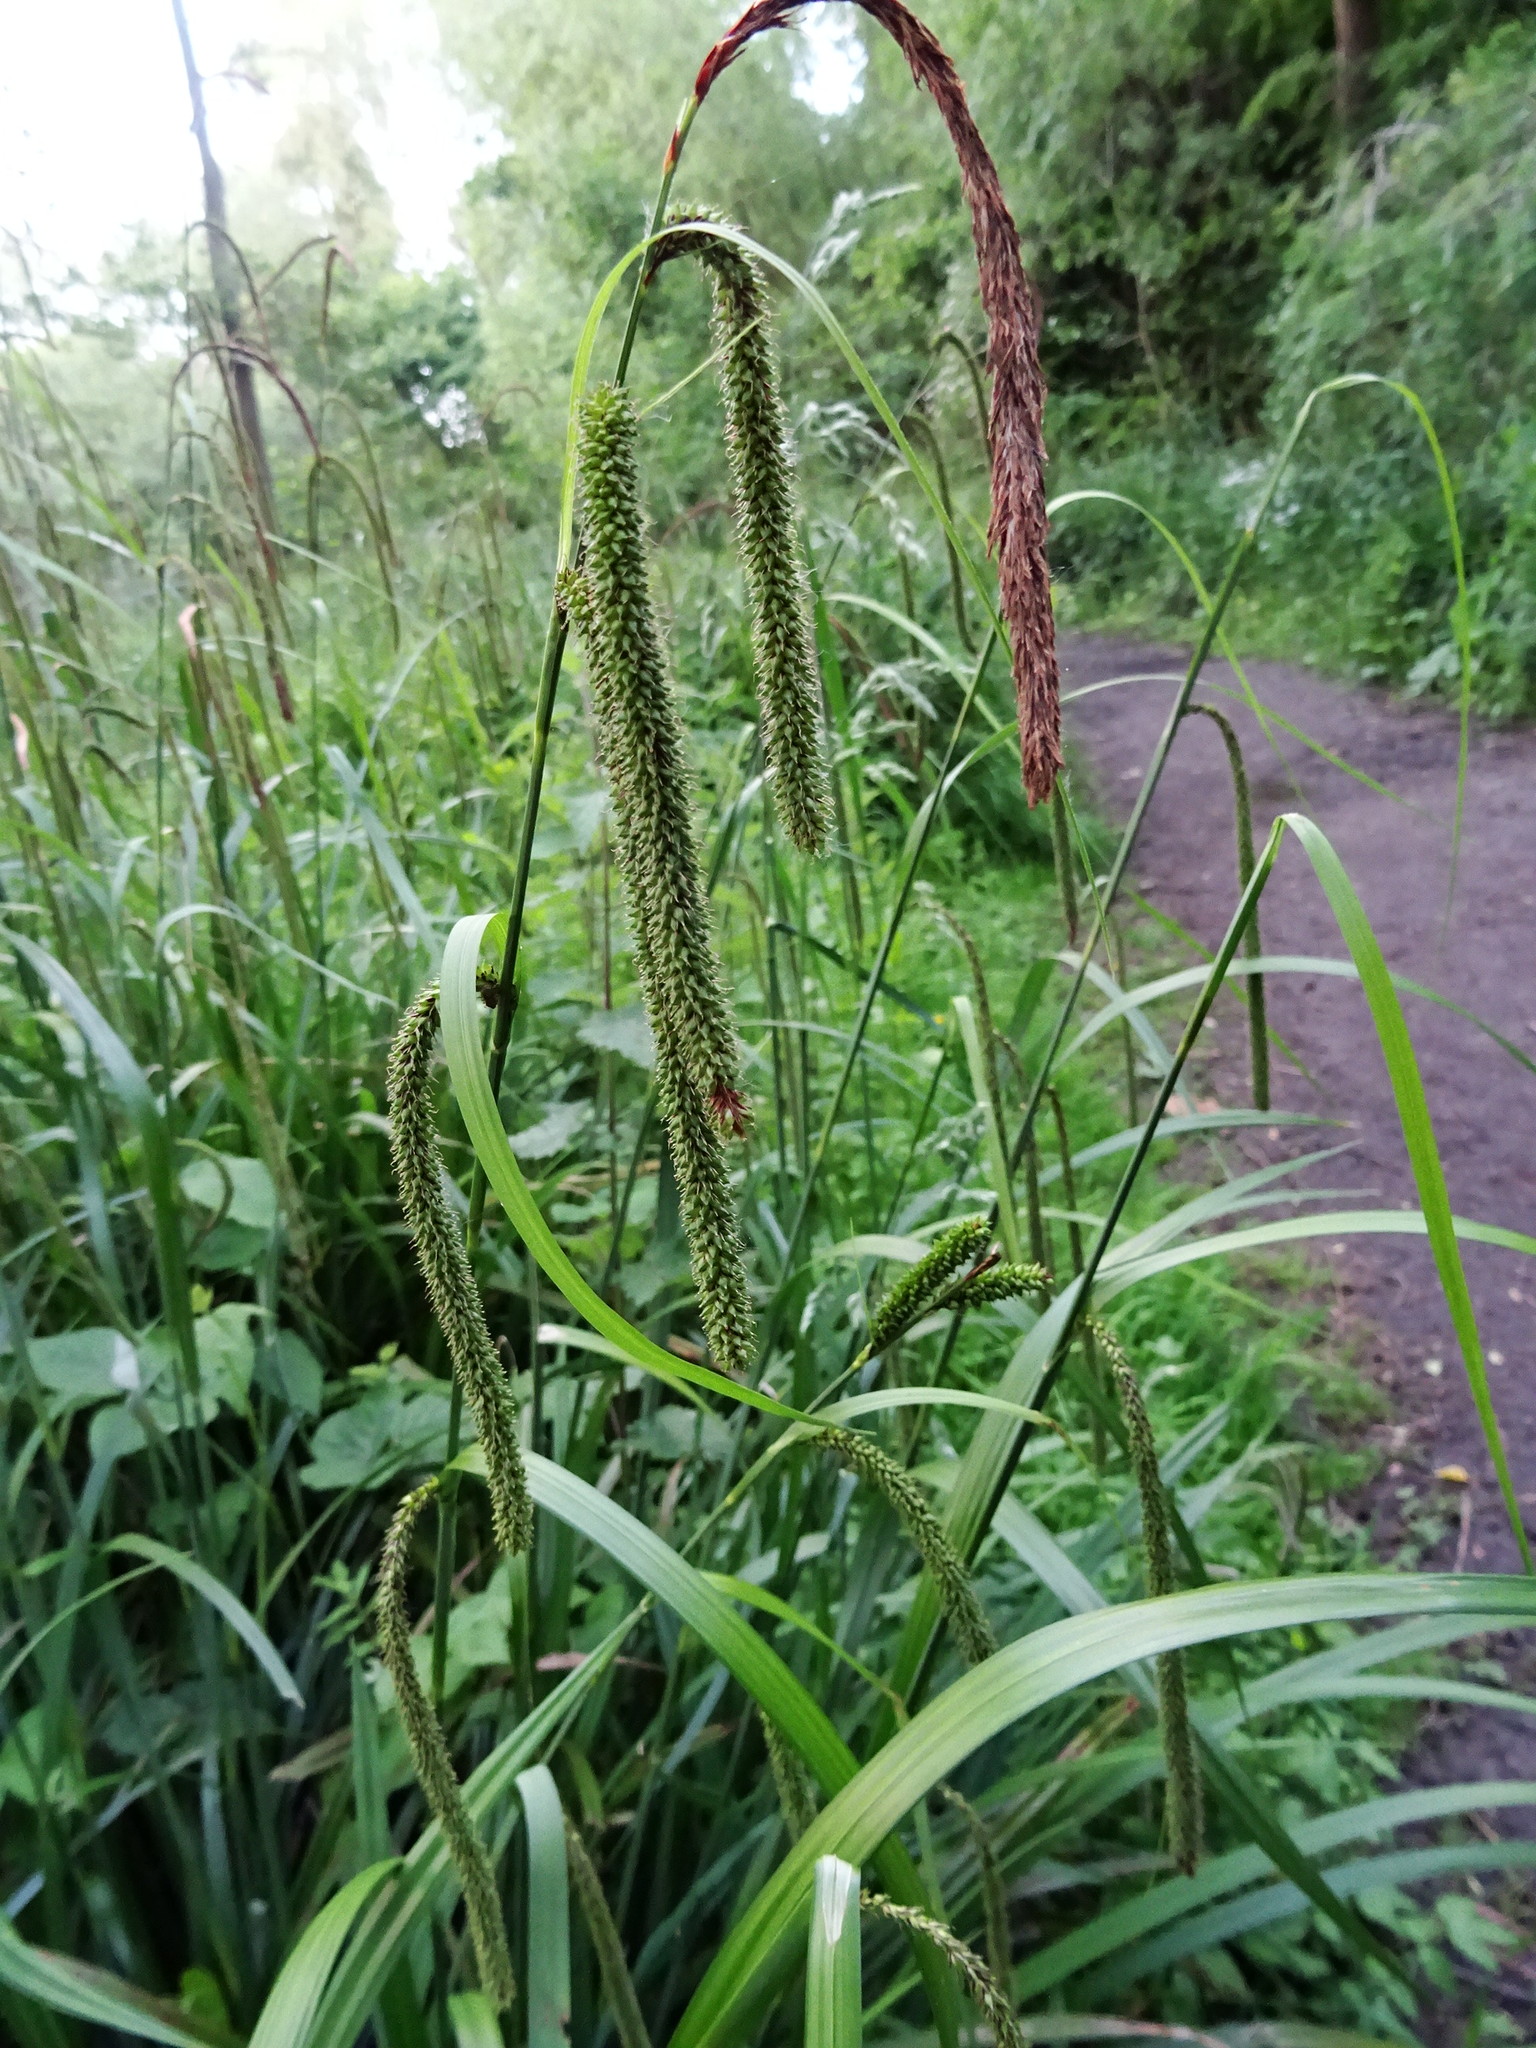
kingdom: Plantae
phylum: Tracheophyta
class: Liliopsida
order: Poales
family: Cyperaceae
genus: Carex
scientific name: Carex pendula
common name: Pendulous sedge
